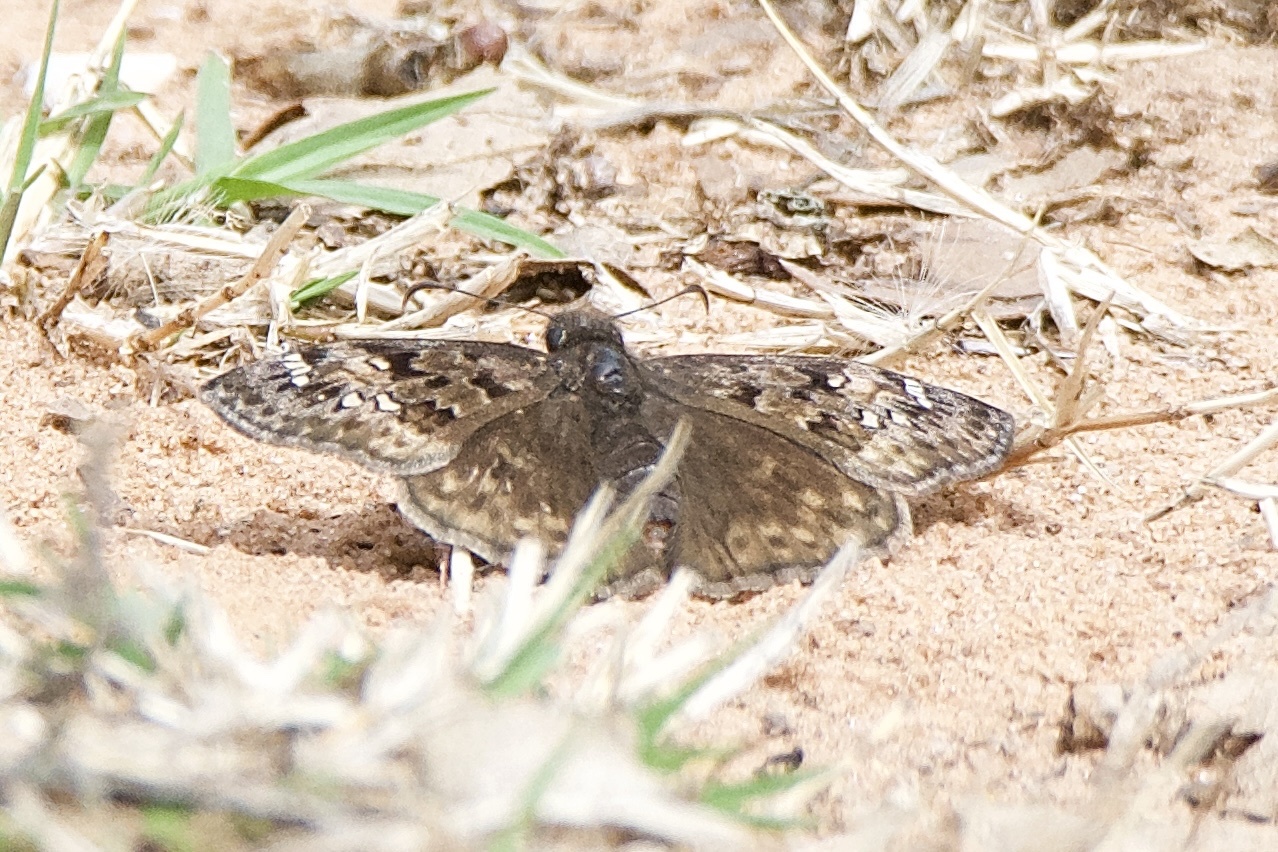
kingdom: Animalia
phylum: Arthropoda
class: Insecta
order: Lepidoptera
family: Hesperiidae
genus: Erynnis
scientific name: Erynnis horatius
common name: Horace's duskywing
